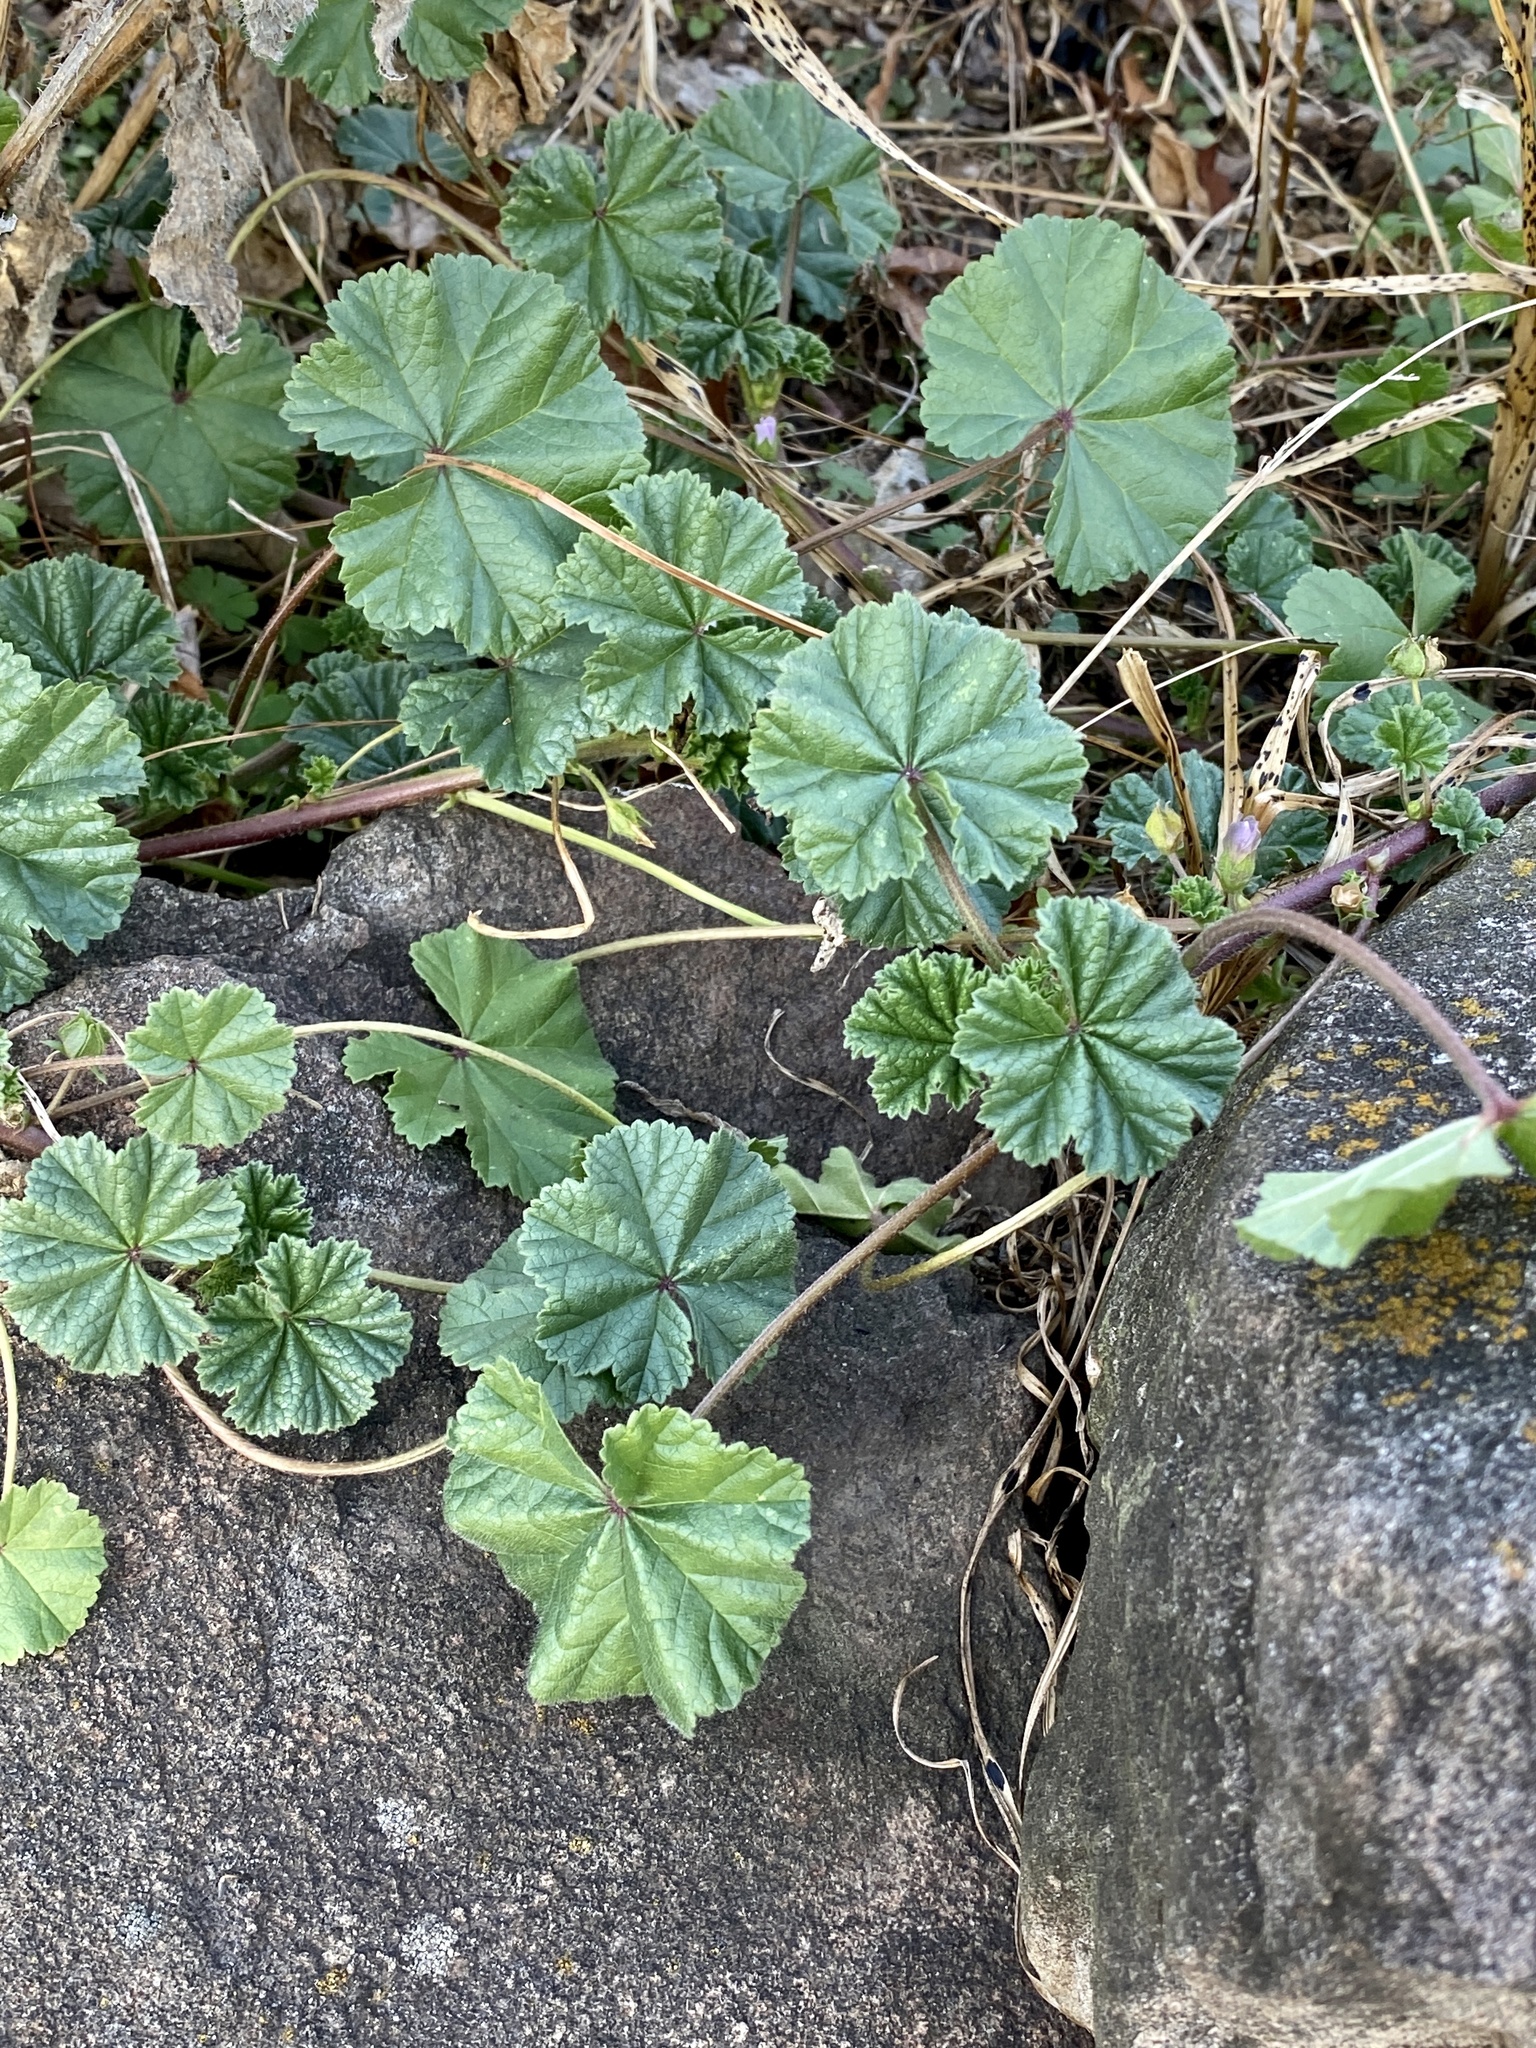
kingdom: Plantae
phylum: Tracheophyta
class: Magnoliopsida
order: Malvales
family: Malvaceae
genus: Malva
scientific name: Malva neglecta
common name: Common mallow
